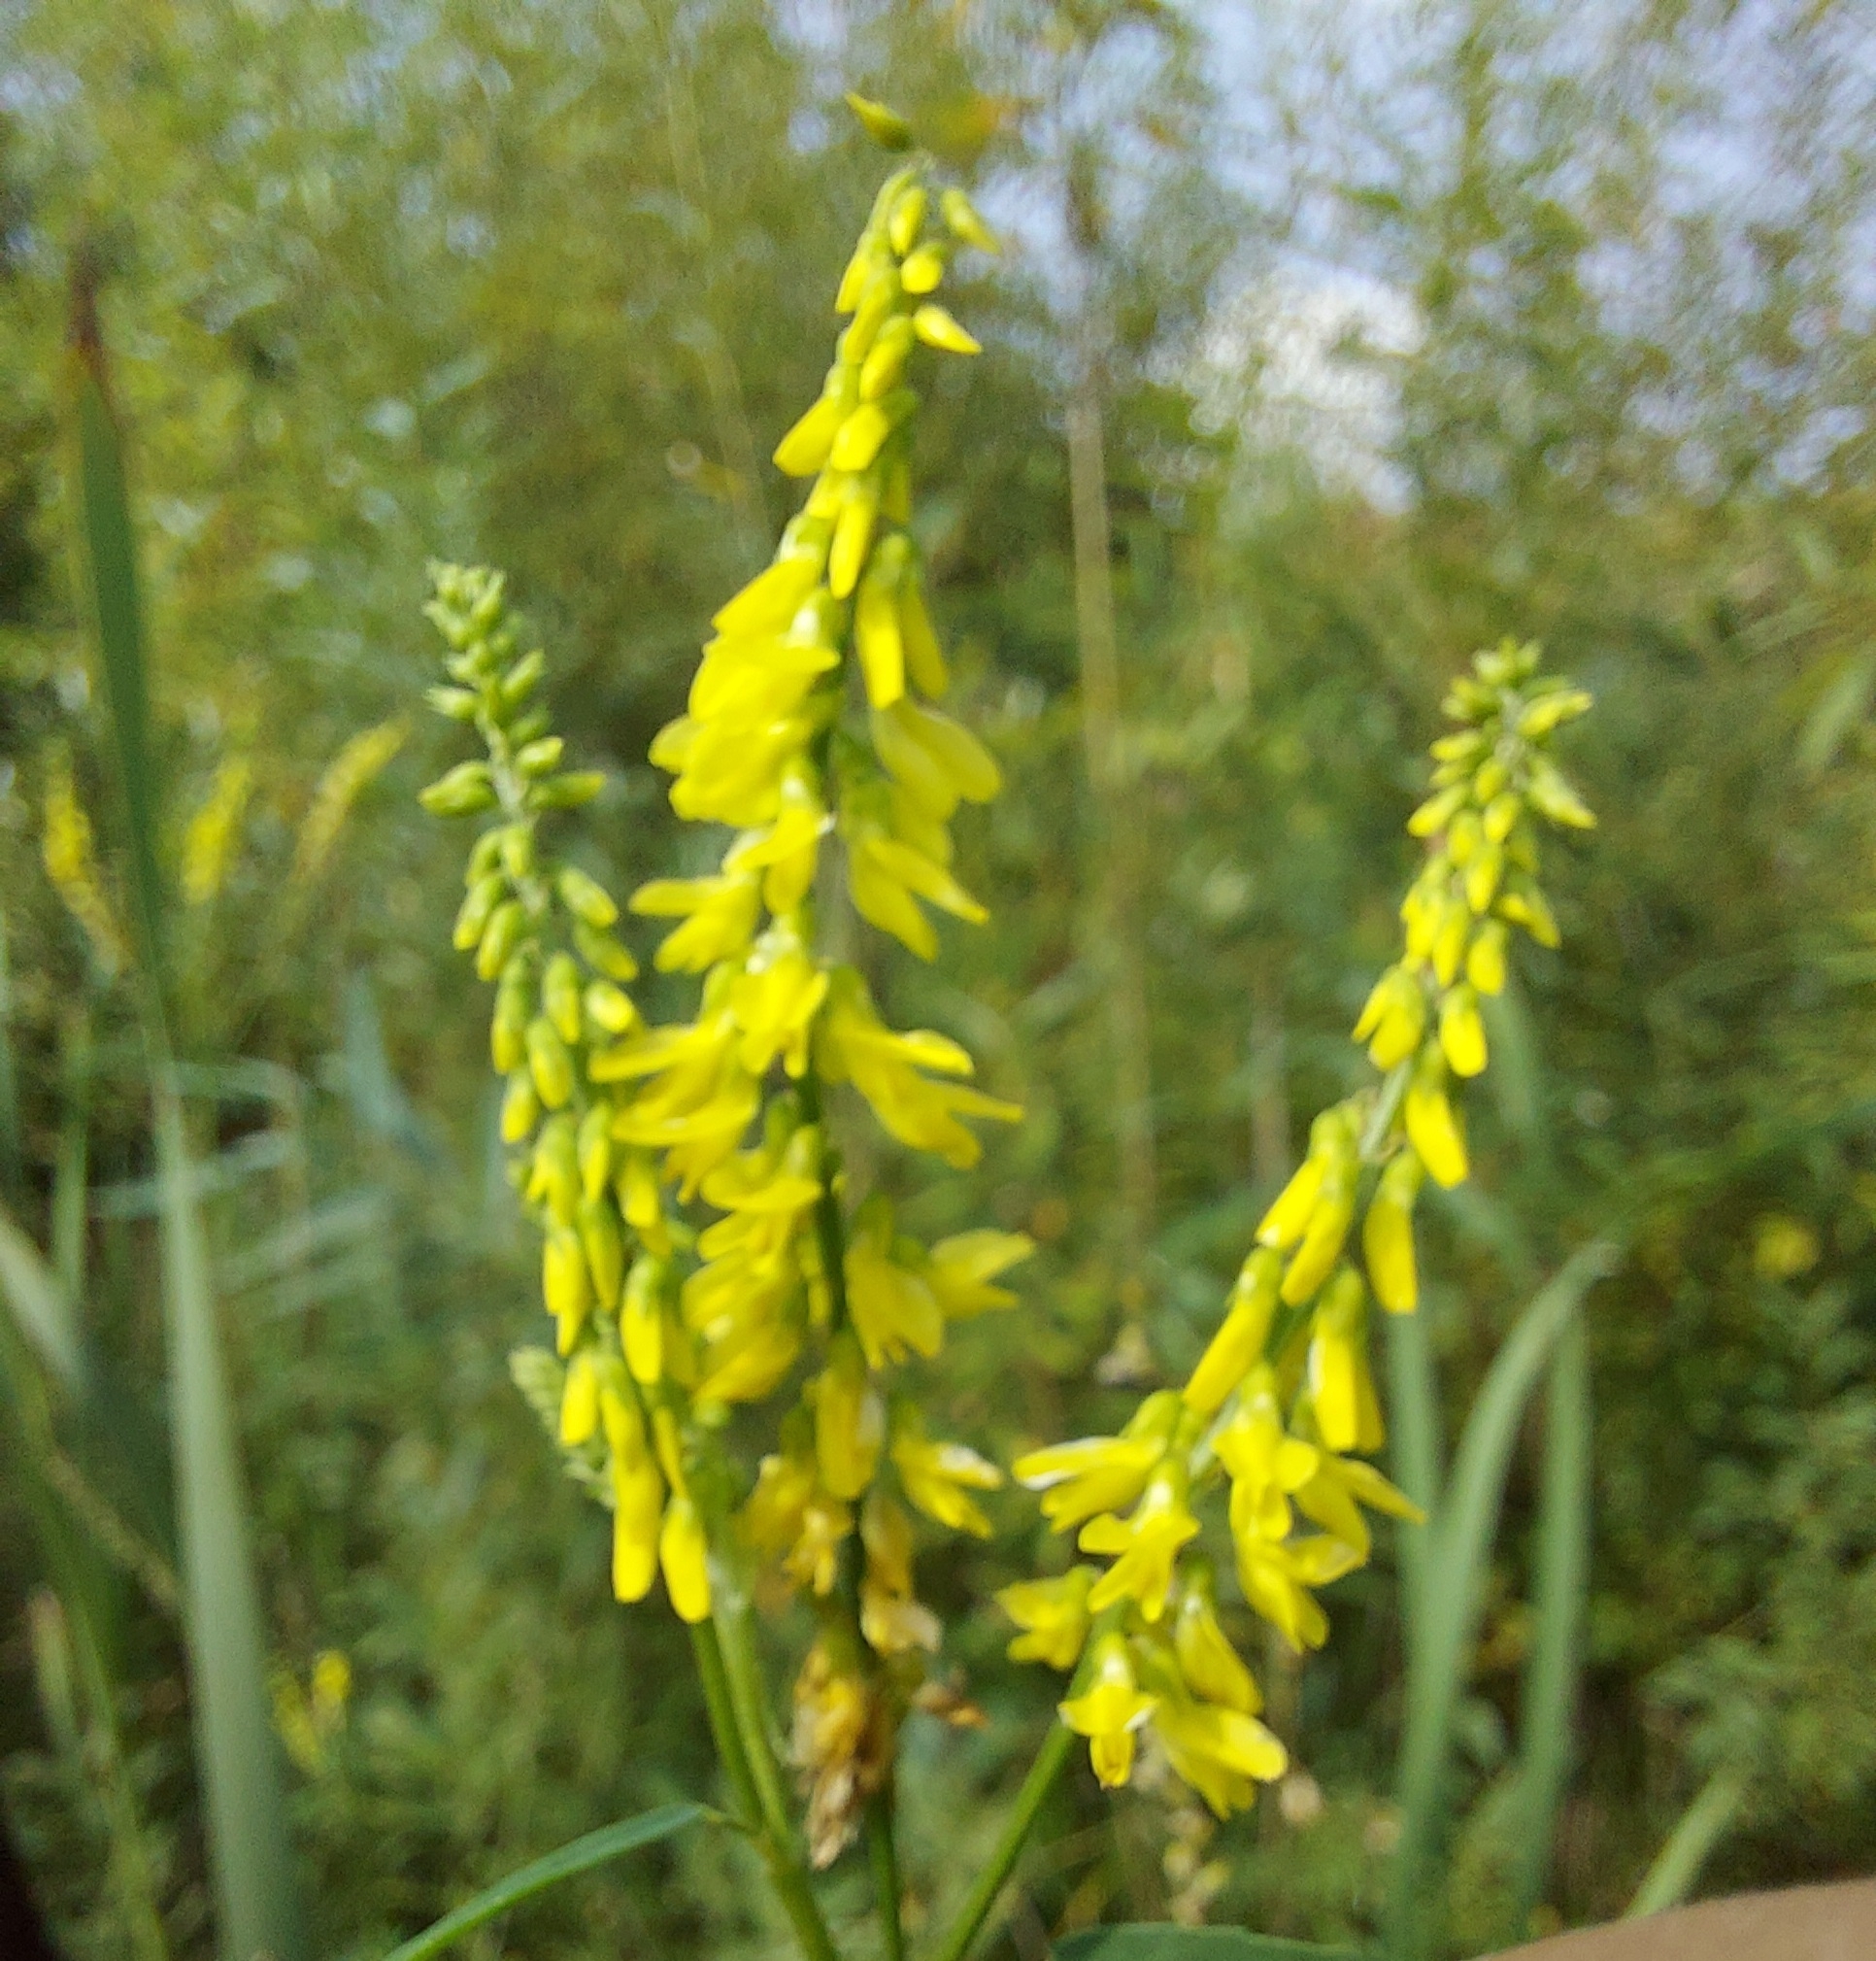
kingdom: Plantae
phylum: Tracheophyta
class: Magnoliopsida
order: Fabales
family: Fabaceae
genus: Melilotus
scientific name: Melilotus officinalis
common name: Sweetclover
